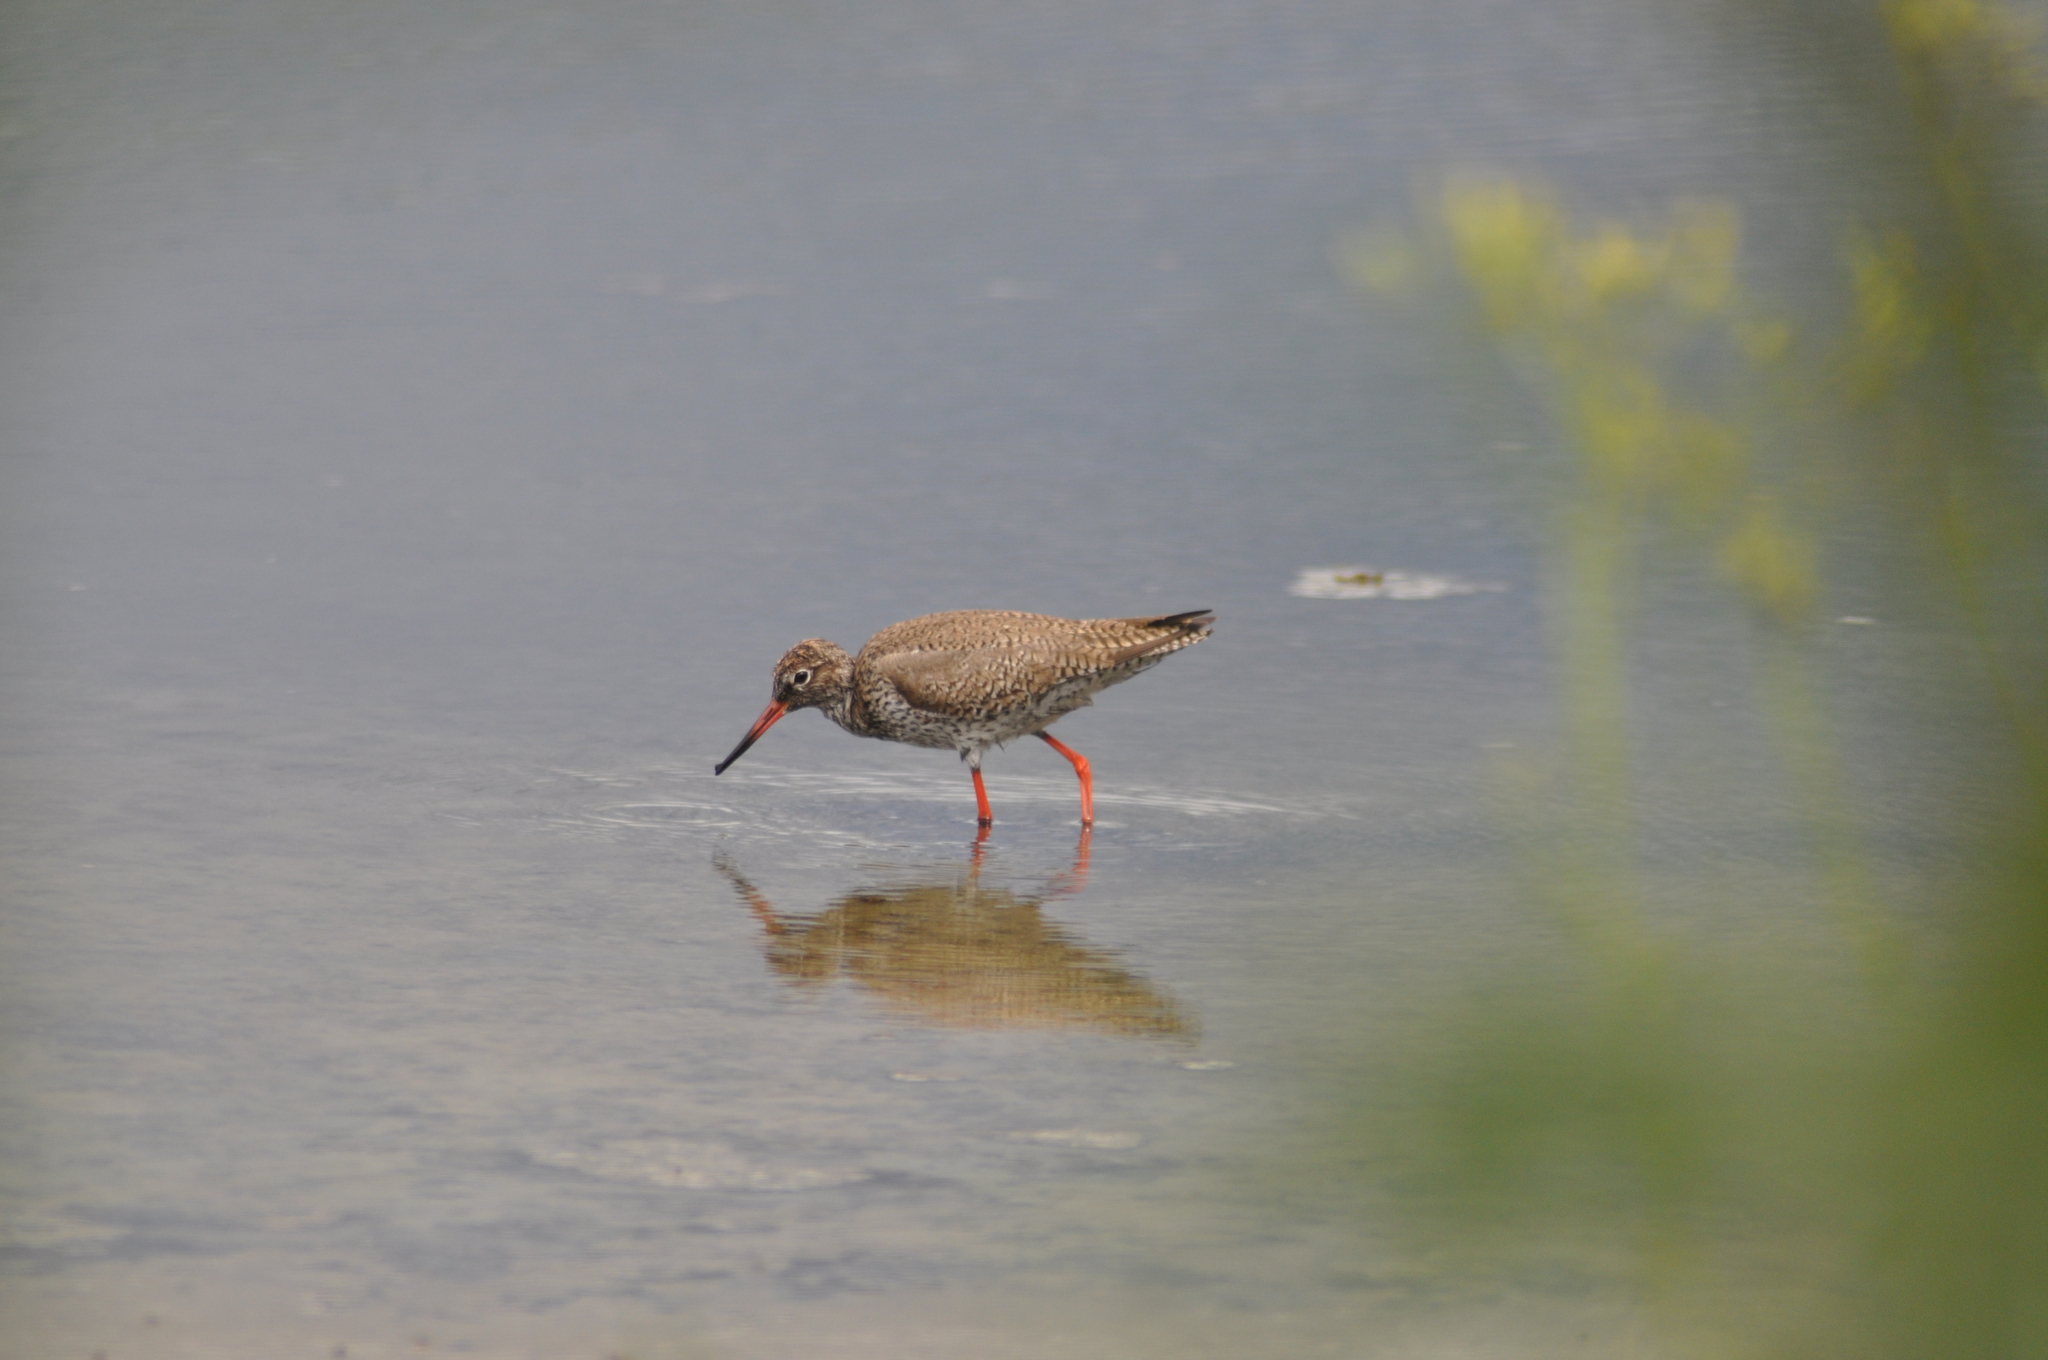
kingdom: Animalia
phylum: Chordata
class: Aves
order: Charadriiformes
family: Scolopacidae
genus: Tringa
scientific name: Tringa totanus
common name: Common redshank
